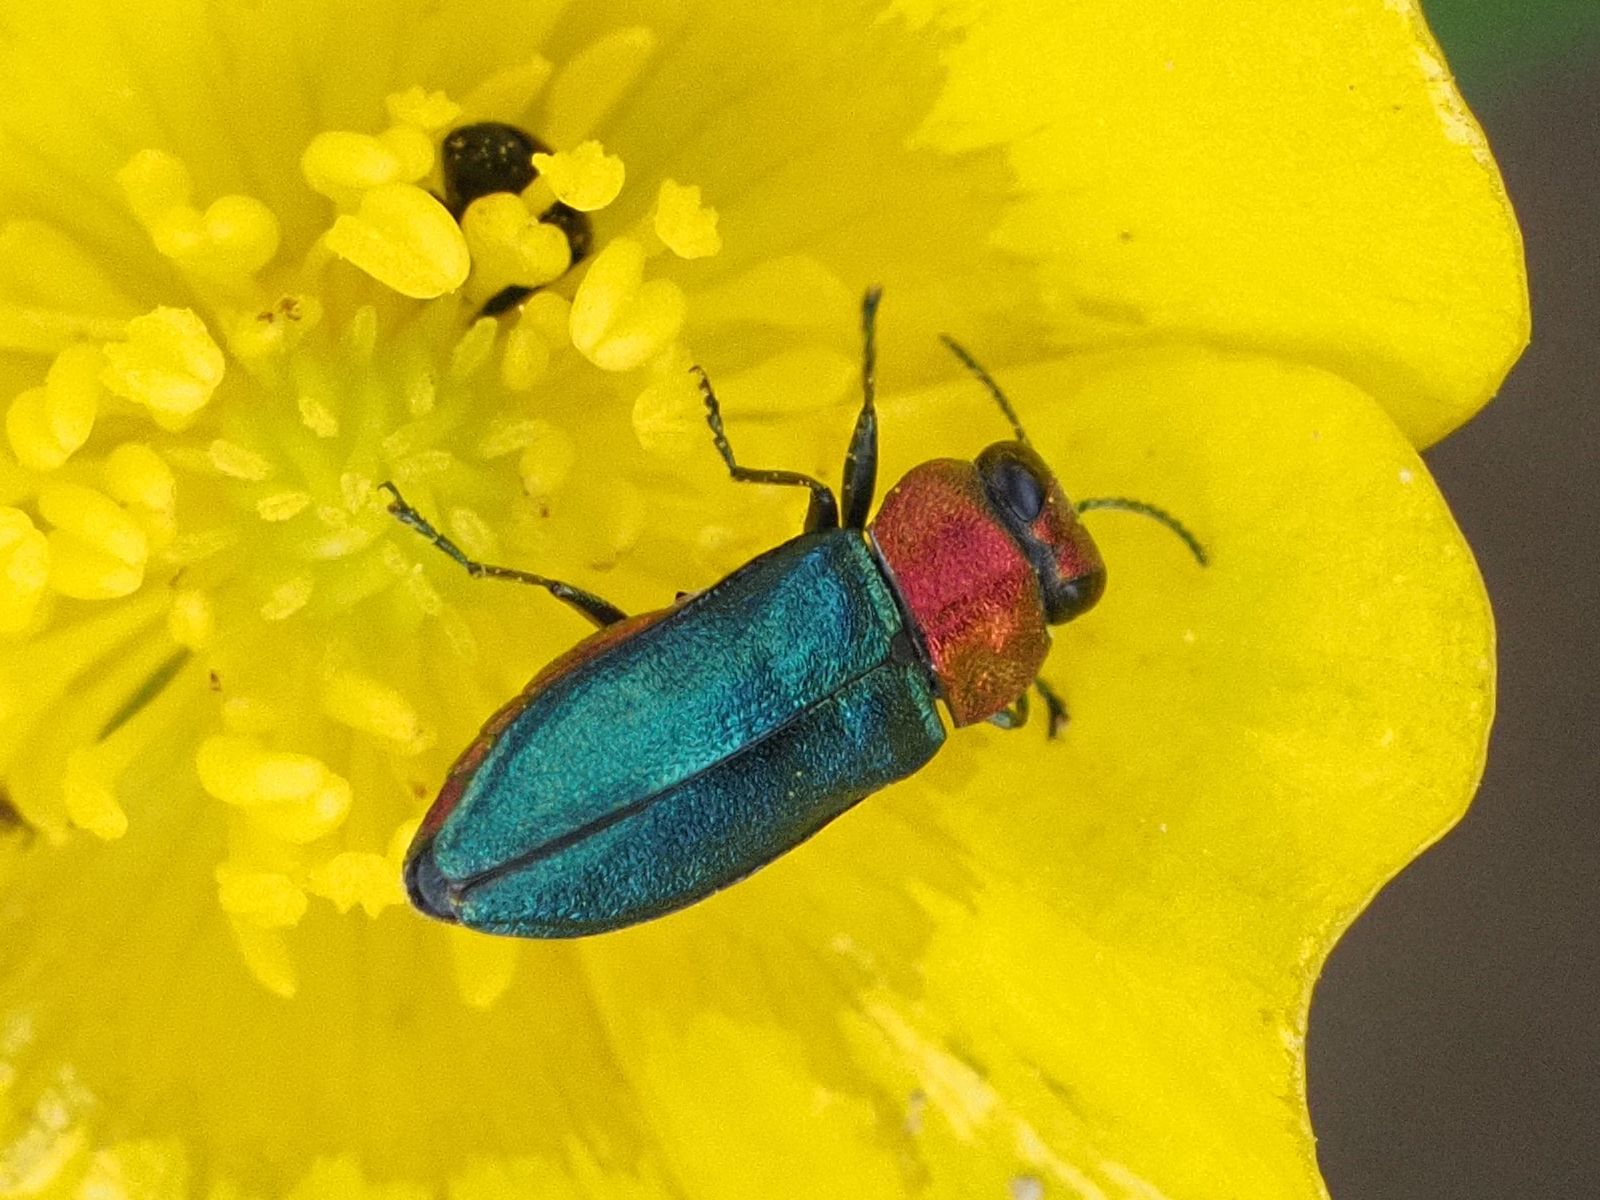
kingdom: Animalia
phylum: Arthropoda
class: Insecta
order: Coleoptera
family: Buprestidae
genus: Anthaxia
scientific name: Anthaxia nitidula
